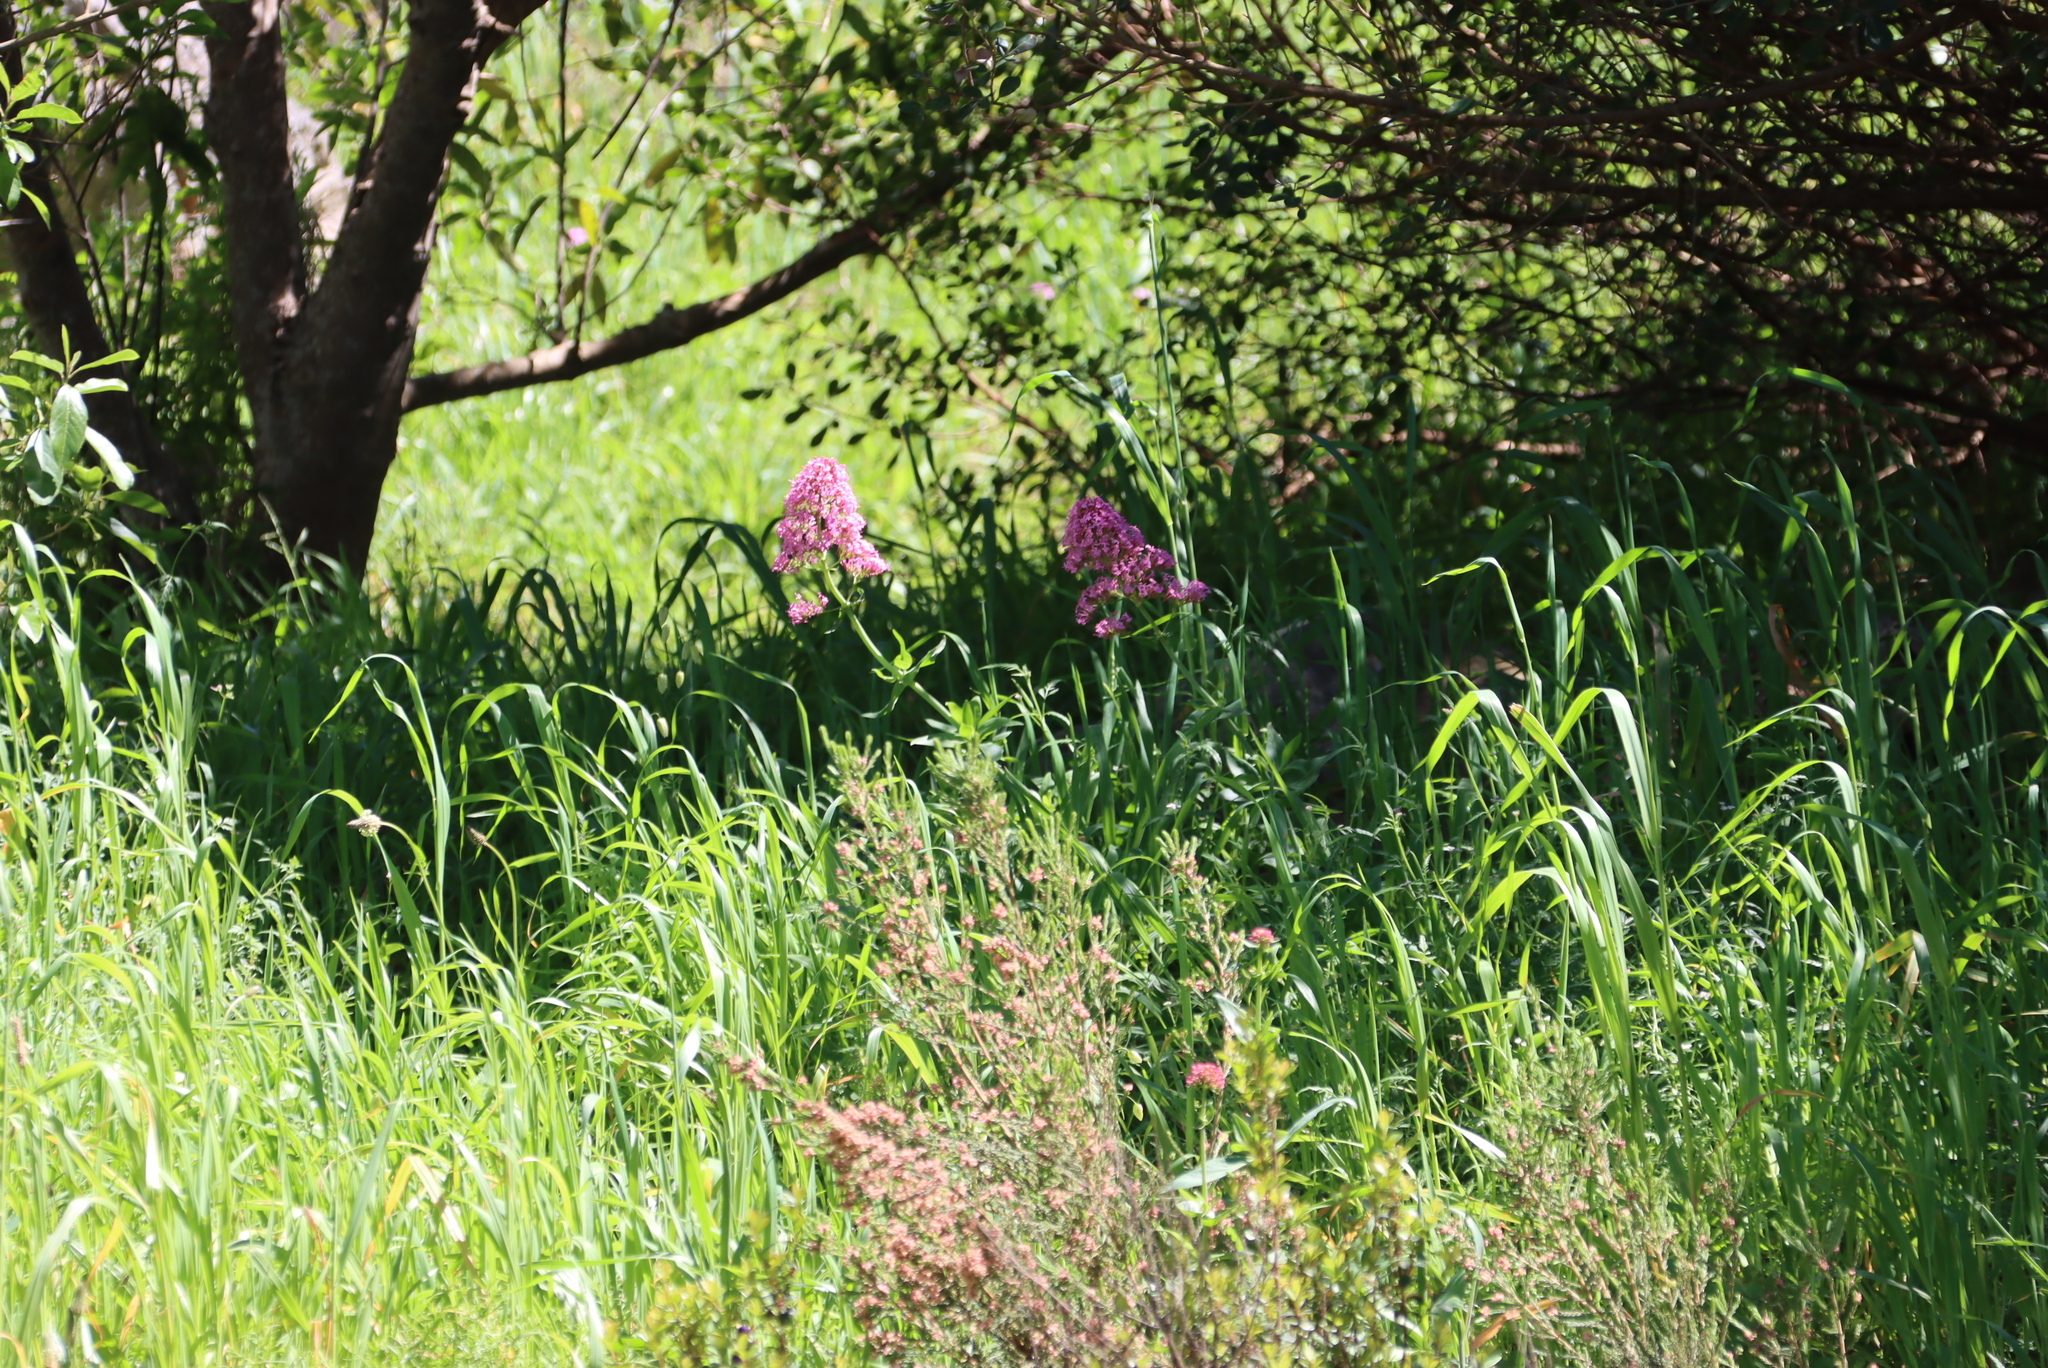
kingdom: Plantae
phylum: Tracheophyta
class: Magnoliopsida
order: Dipsacales
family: Caprifoliaceae
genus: Centranthus
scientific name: Centranthus ruber
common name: Red valerian
